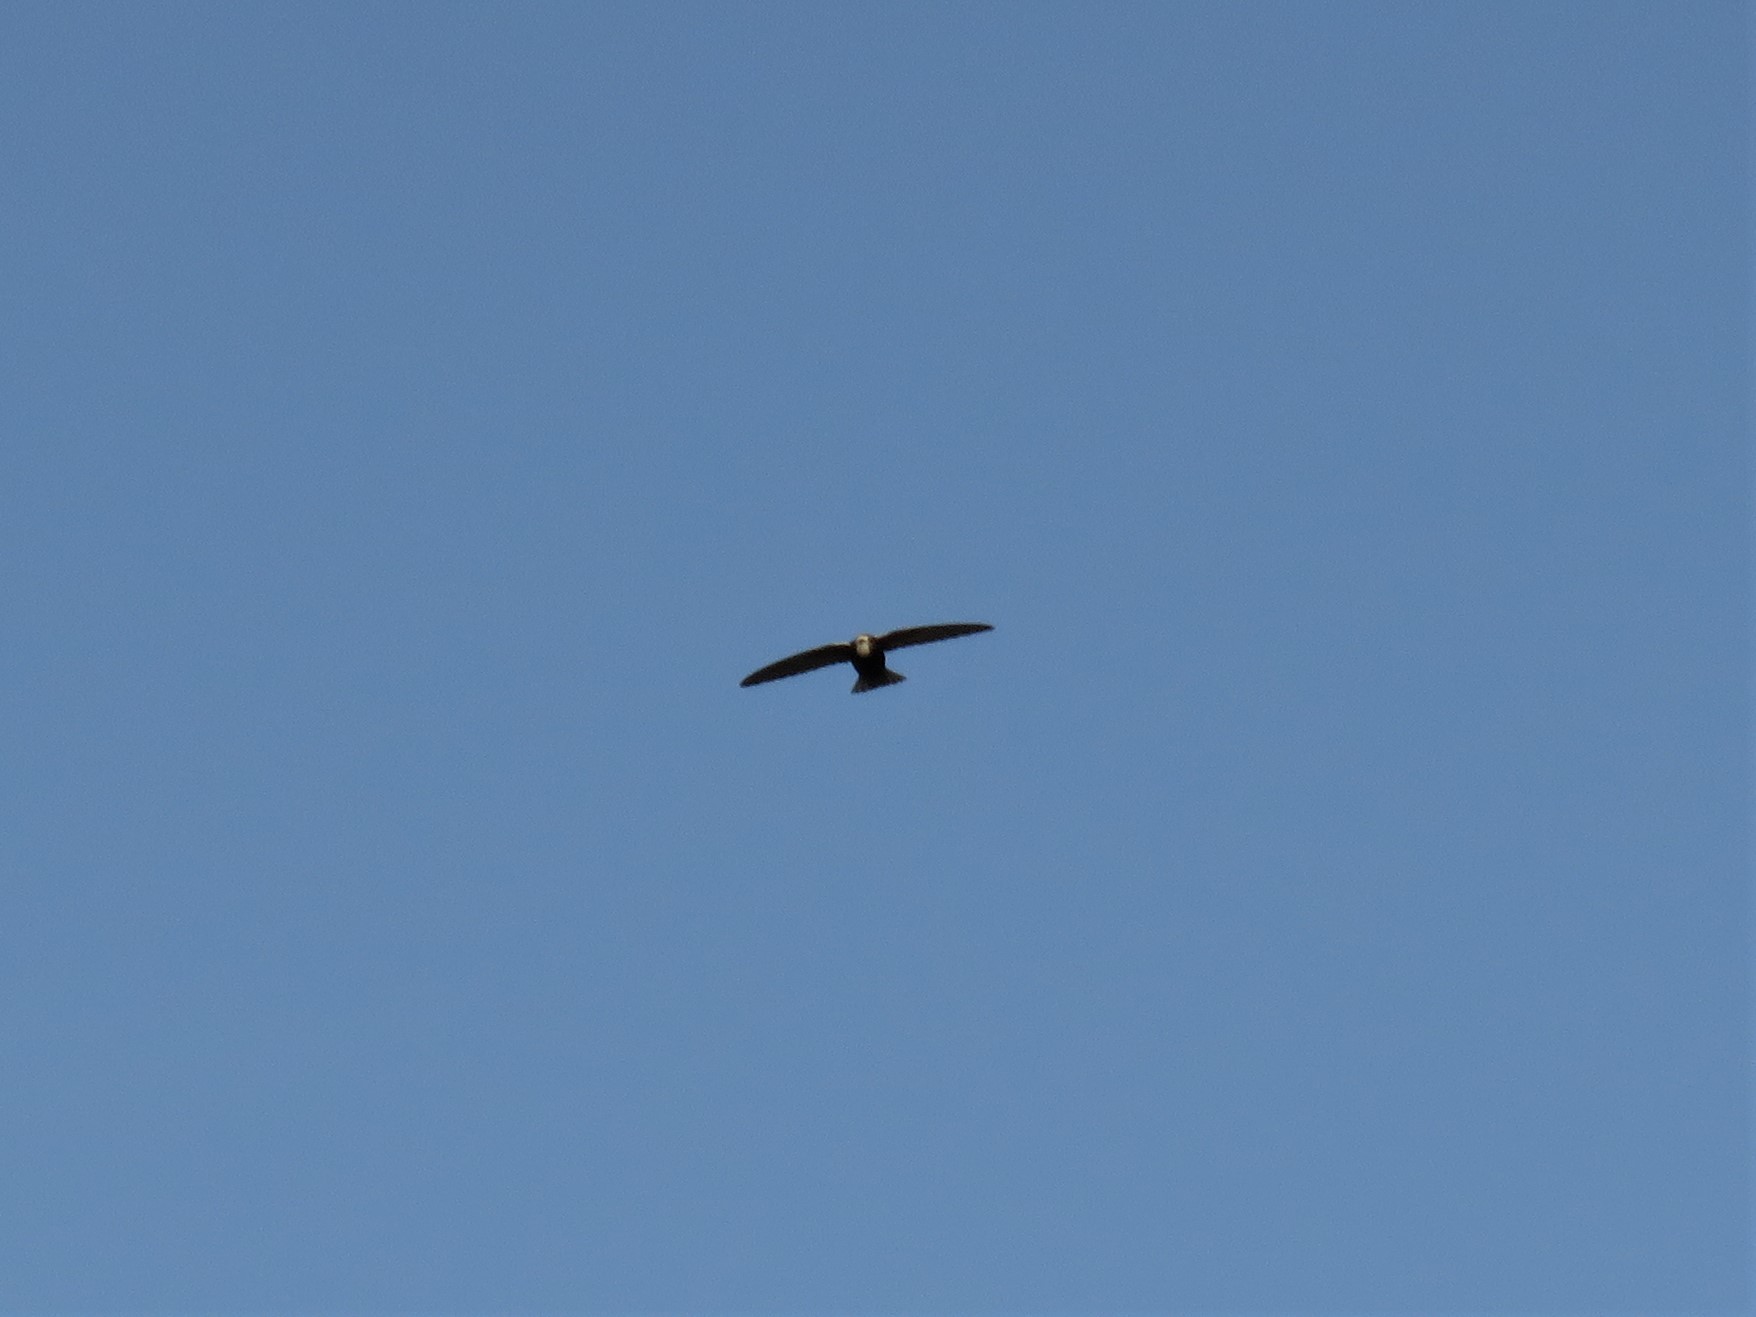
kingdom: Animalia
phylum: Chordata
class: Aves
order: Apodiformes
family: Apodidae
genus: Apus
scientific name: Apus affinis
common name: Little swift
